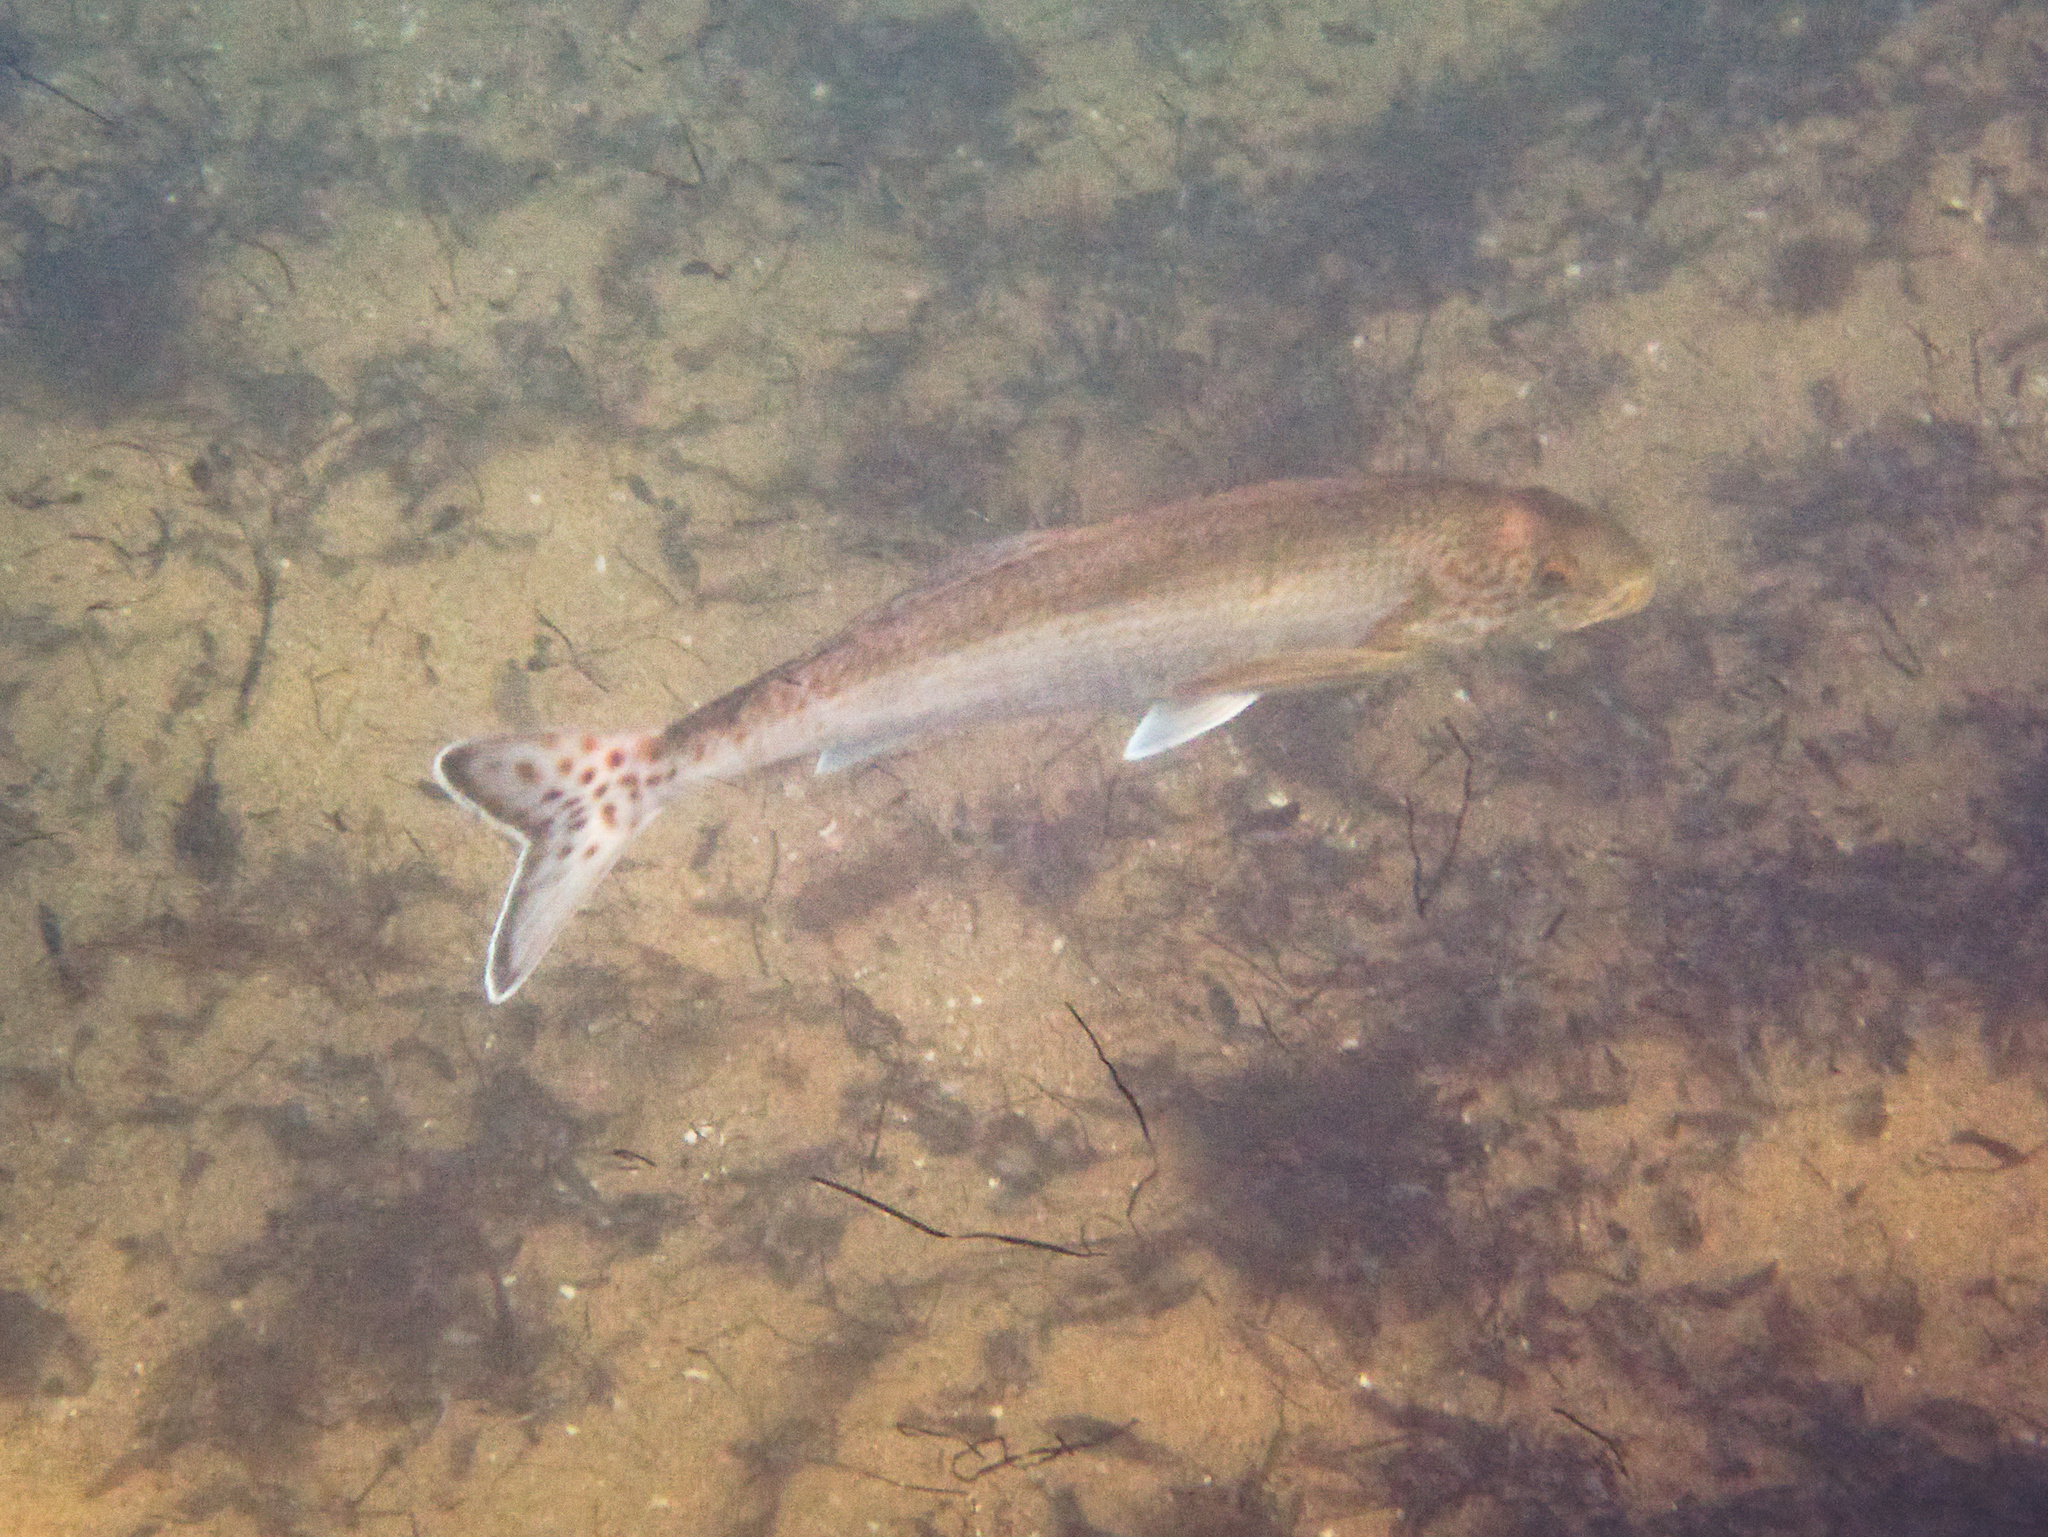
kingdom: Animalia
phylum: Chordata
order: Perciformes
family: Cheilodactylidae
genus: Dactylophora
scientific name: Dactylophora nigricans
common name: Dusky morwong
